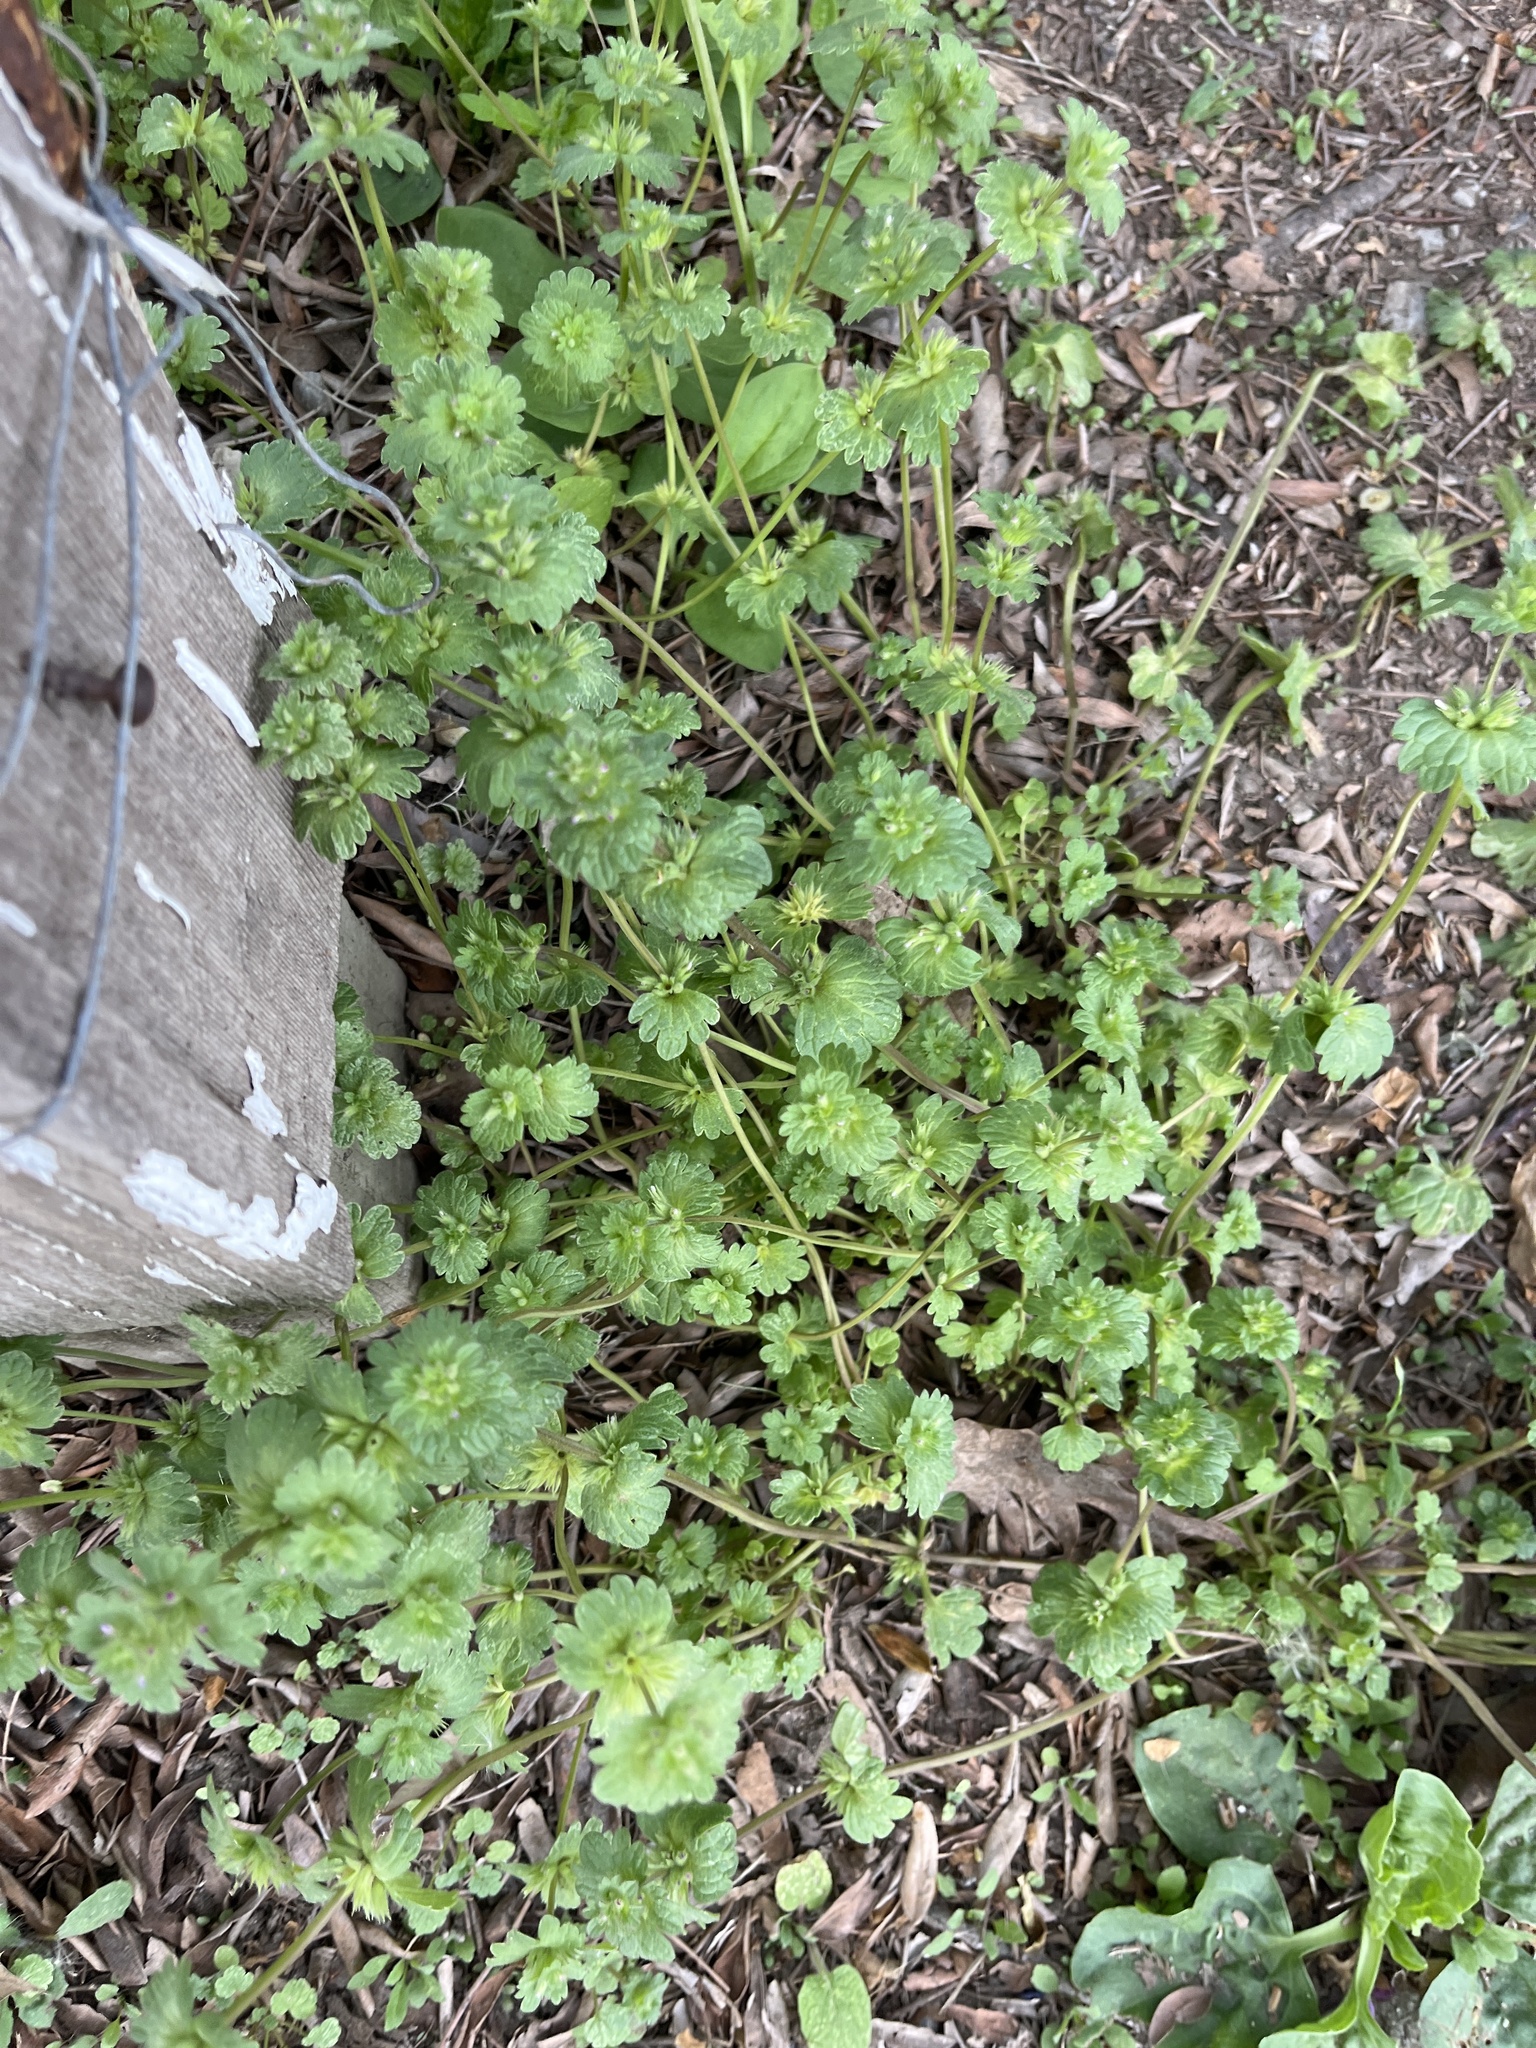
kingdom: Plantae
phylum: Tracheophyta
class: Magnoliopsida
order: Lamiales
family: Lamiaceae
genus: Lamium
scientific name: Lamium amplexicaule
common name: Henbit dead-nettle
